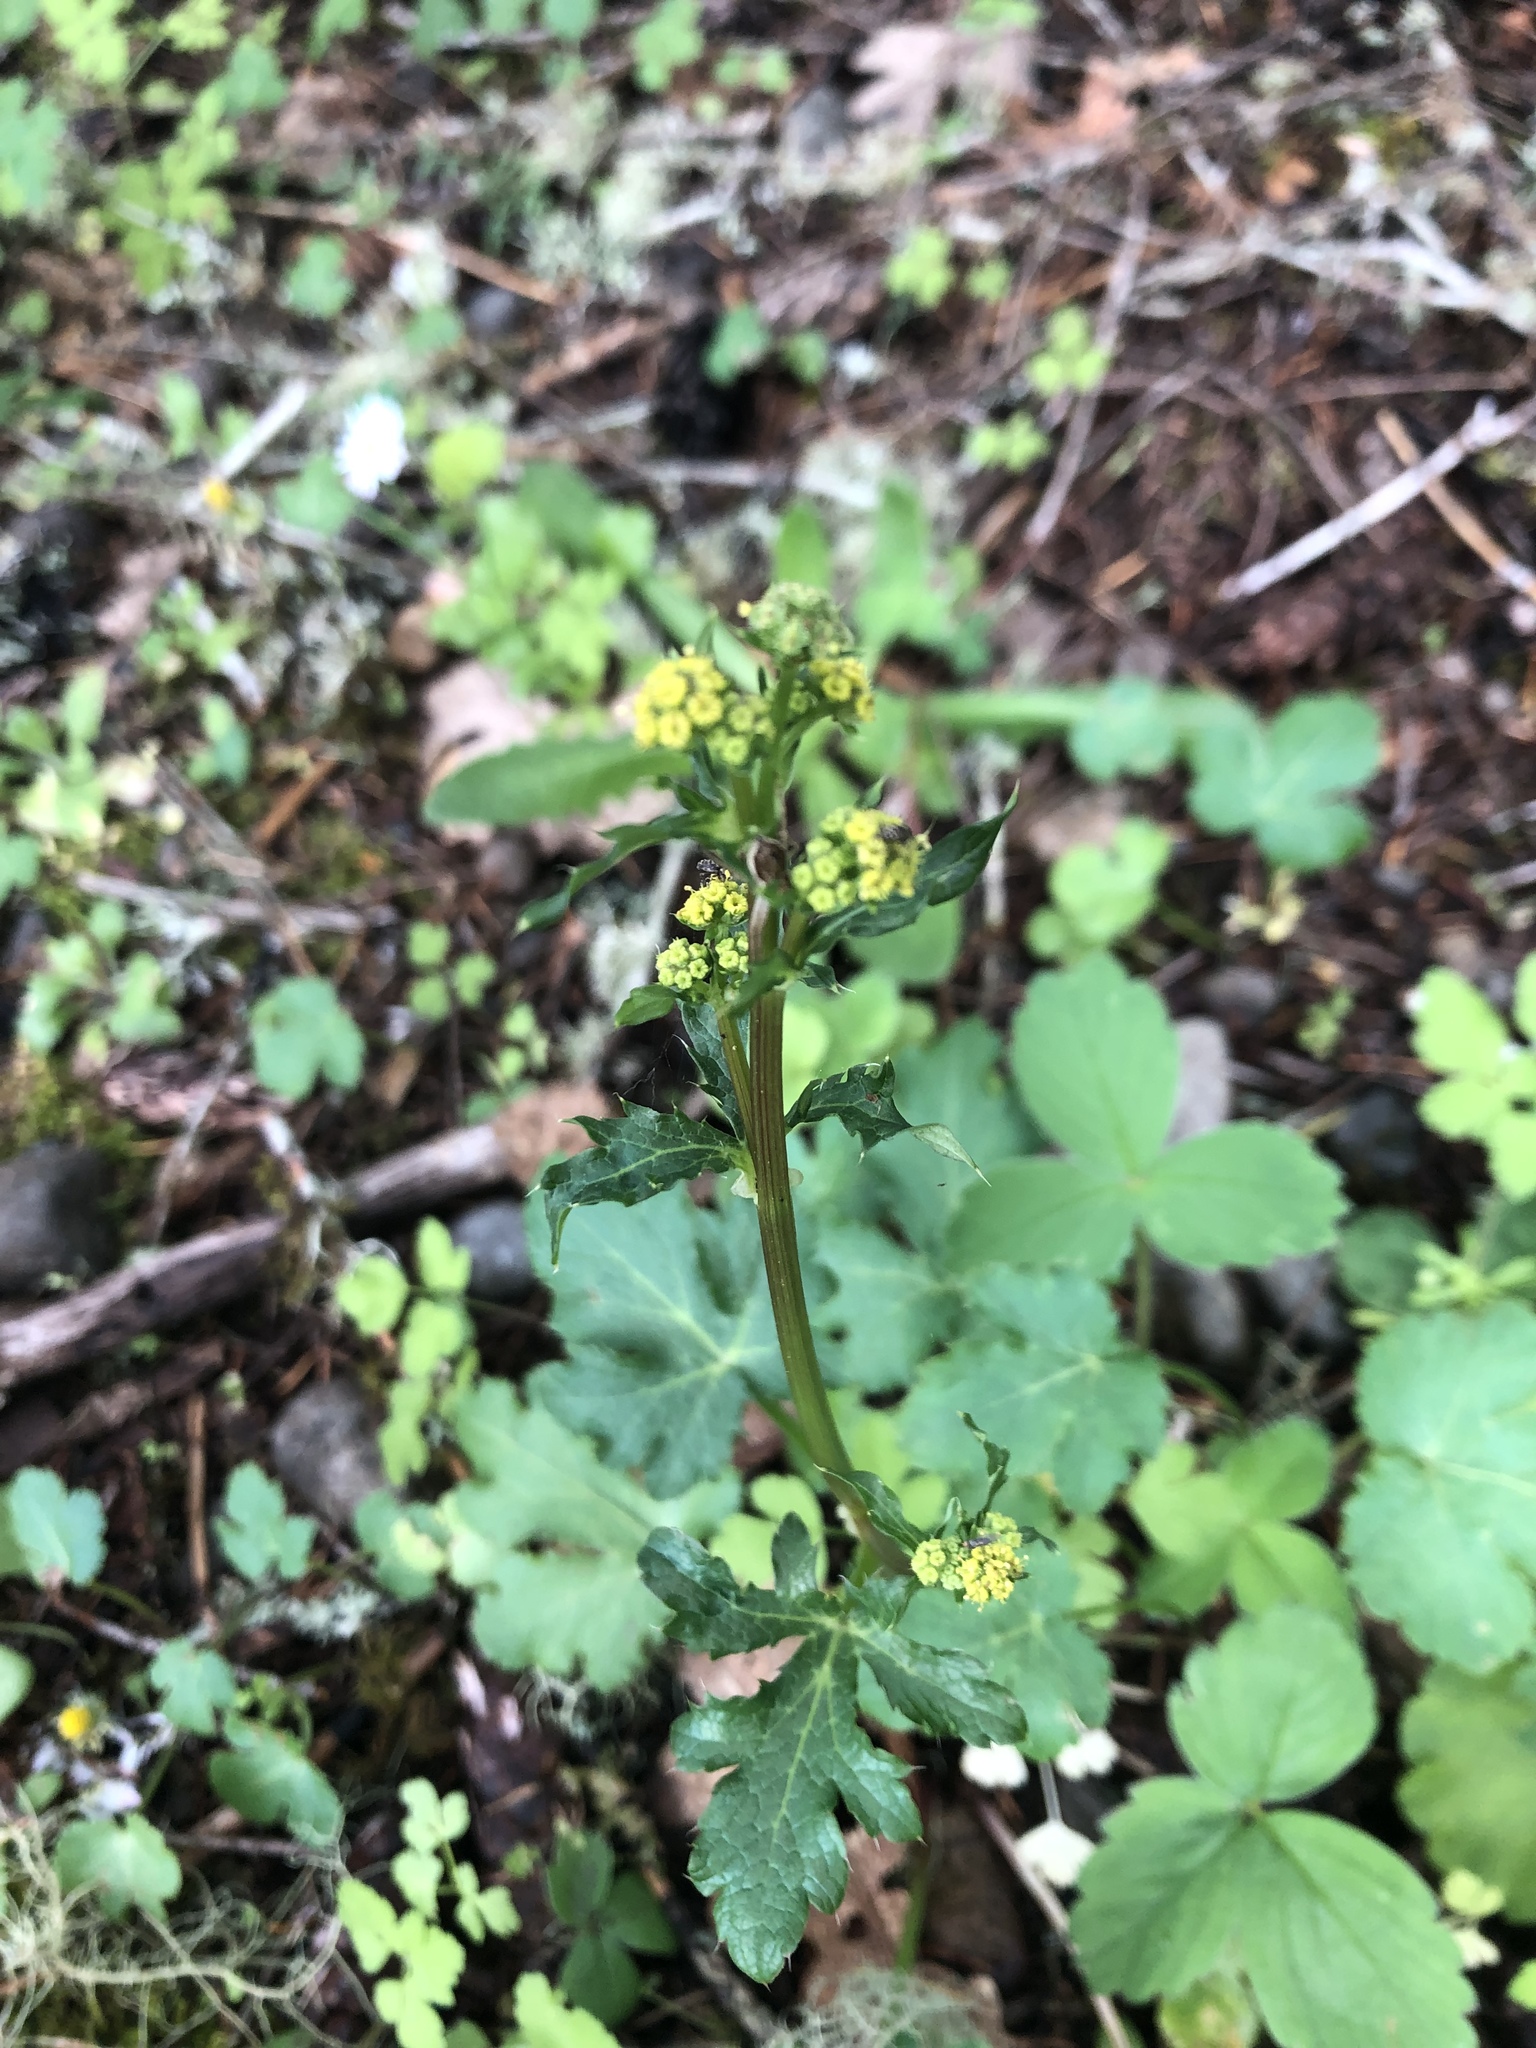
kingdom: Plantae
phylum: Tracheophyta
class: Magnoliopsida
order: Apiales
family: Apiaceae
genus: Sanicula
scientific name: Sanicula crassicaulis
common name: Western snakeroot
